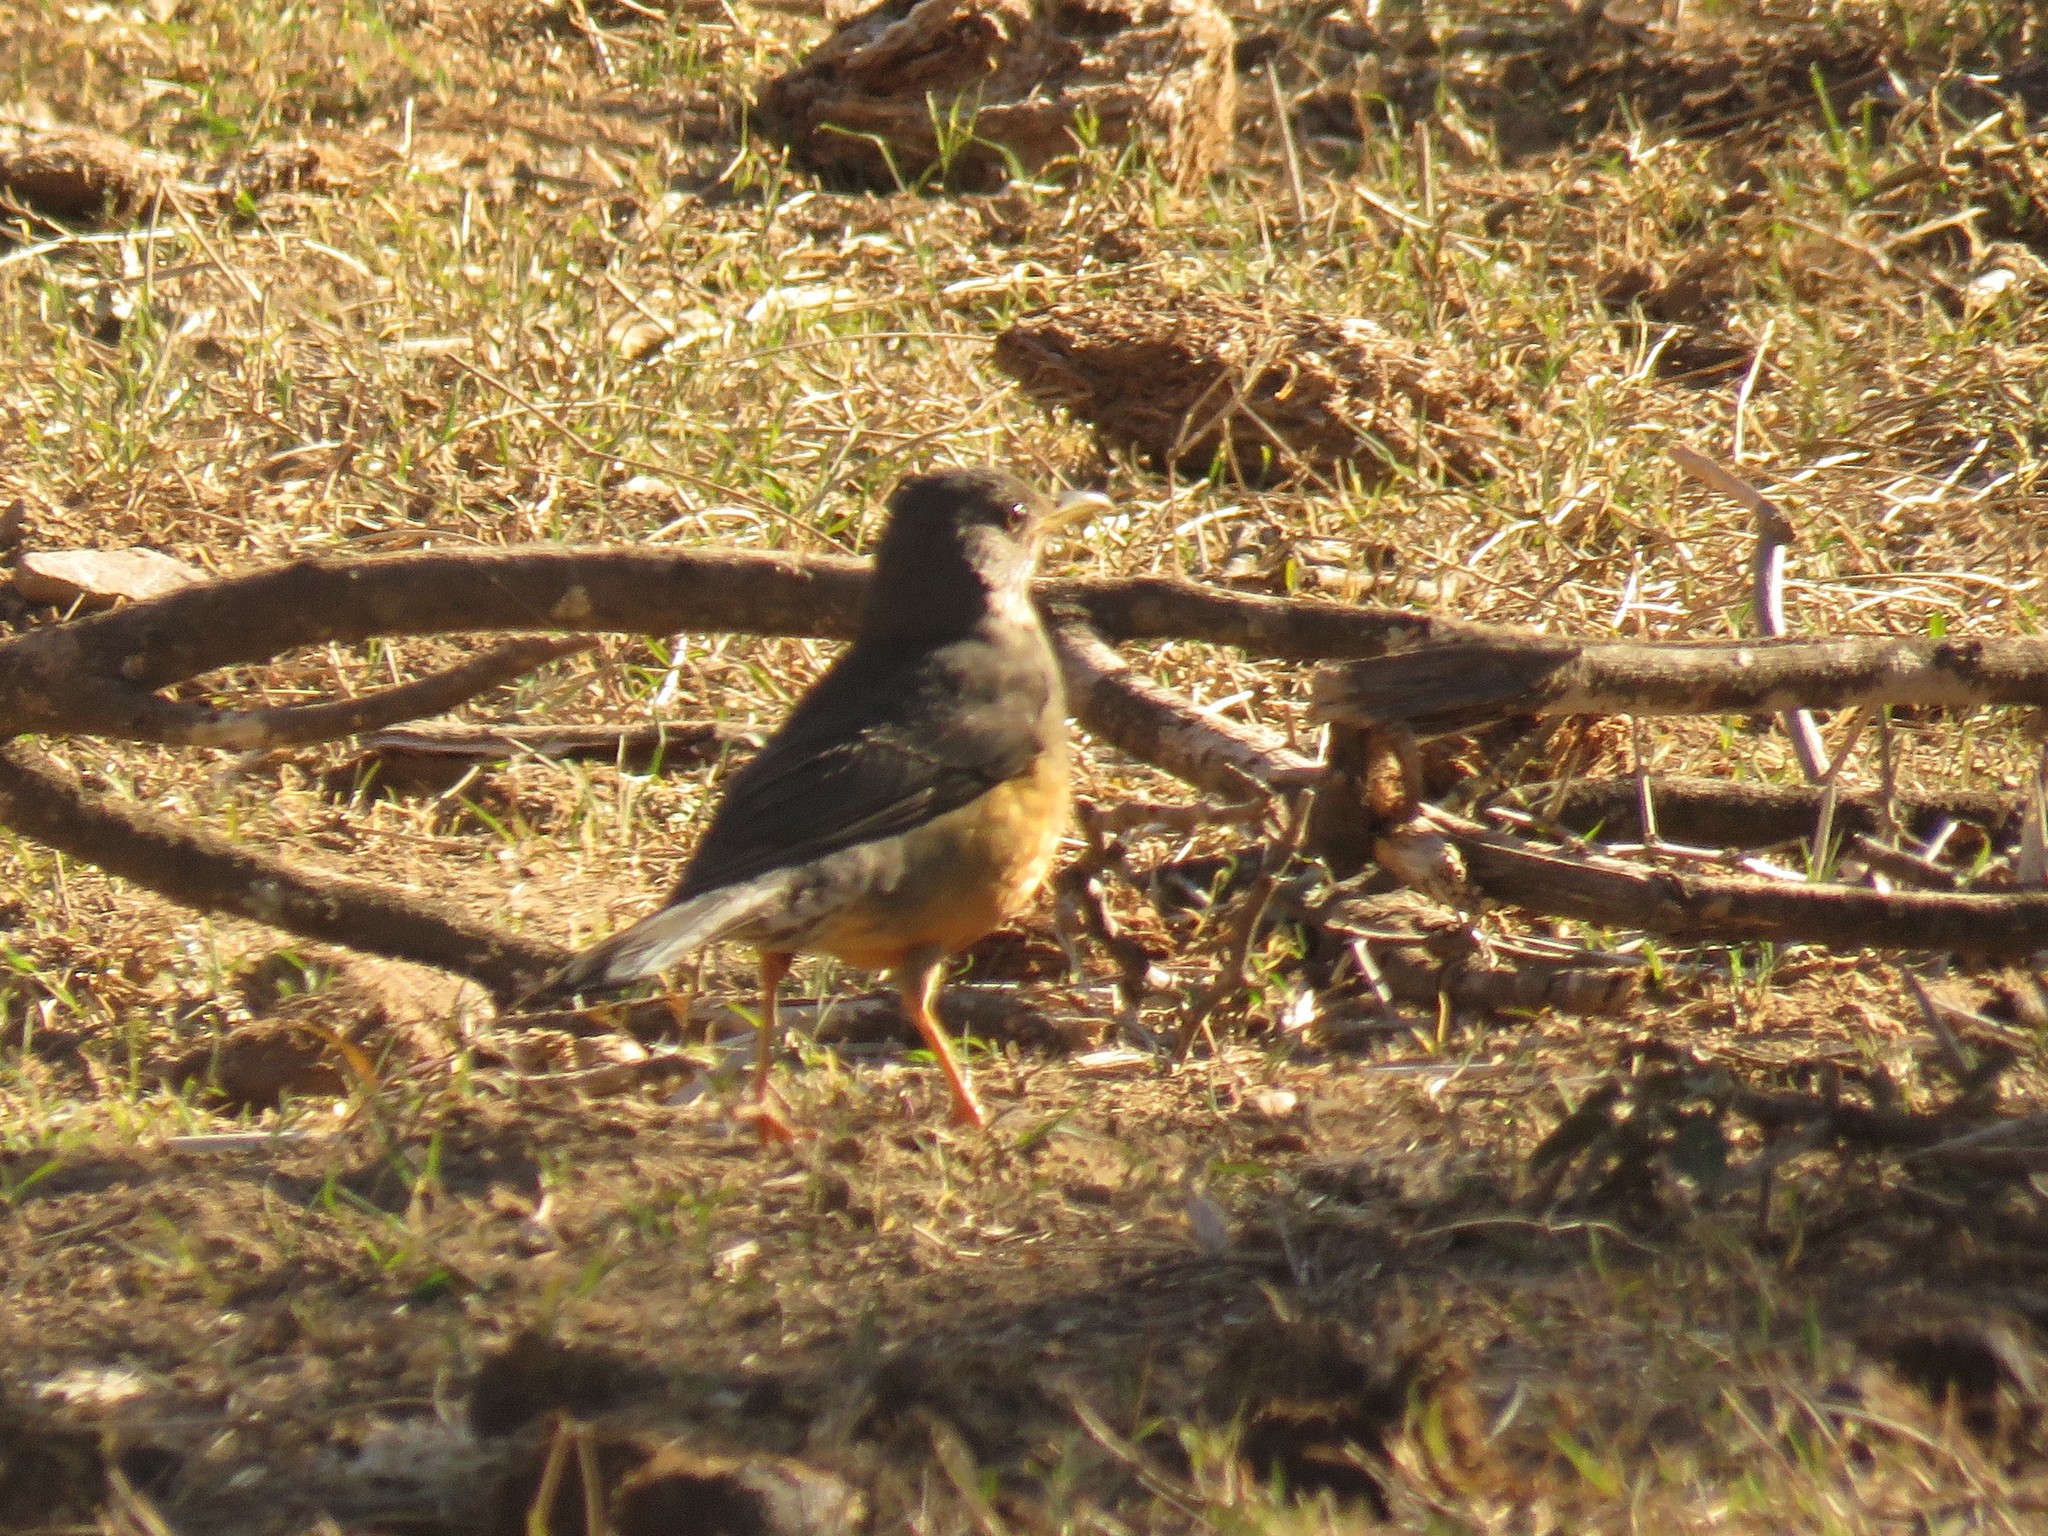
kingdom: Animalia
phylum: Chordata
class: Aves
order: Passeriformes
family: Turdidae
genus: Turdus
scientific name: Turdus olivaceus
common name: Olive thrush
